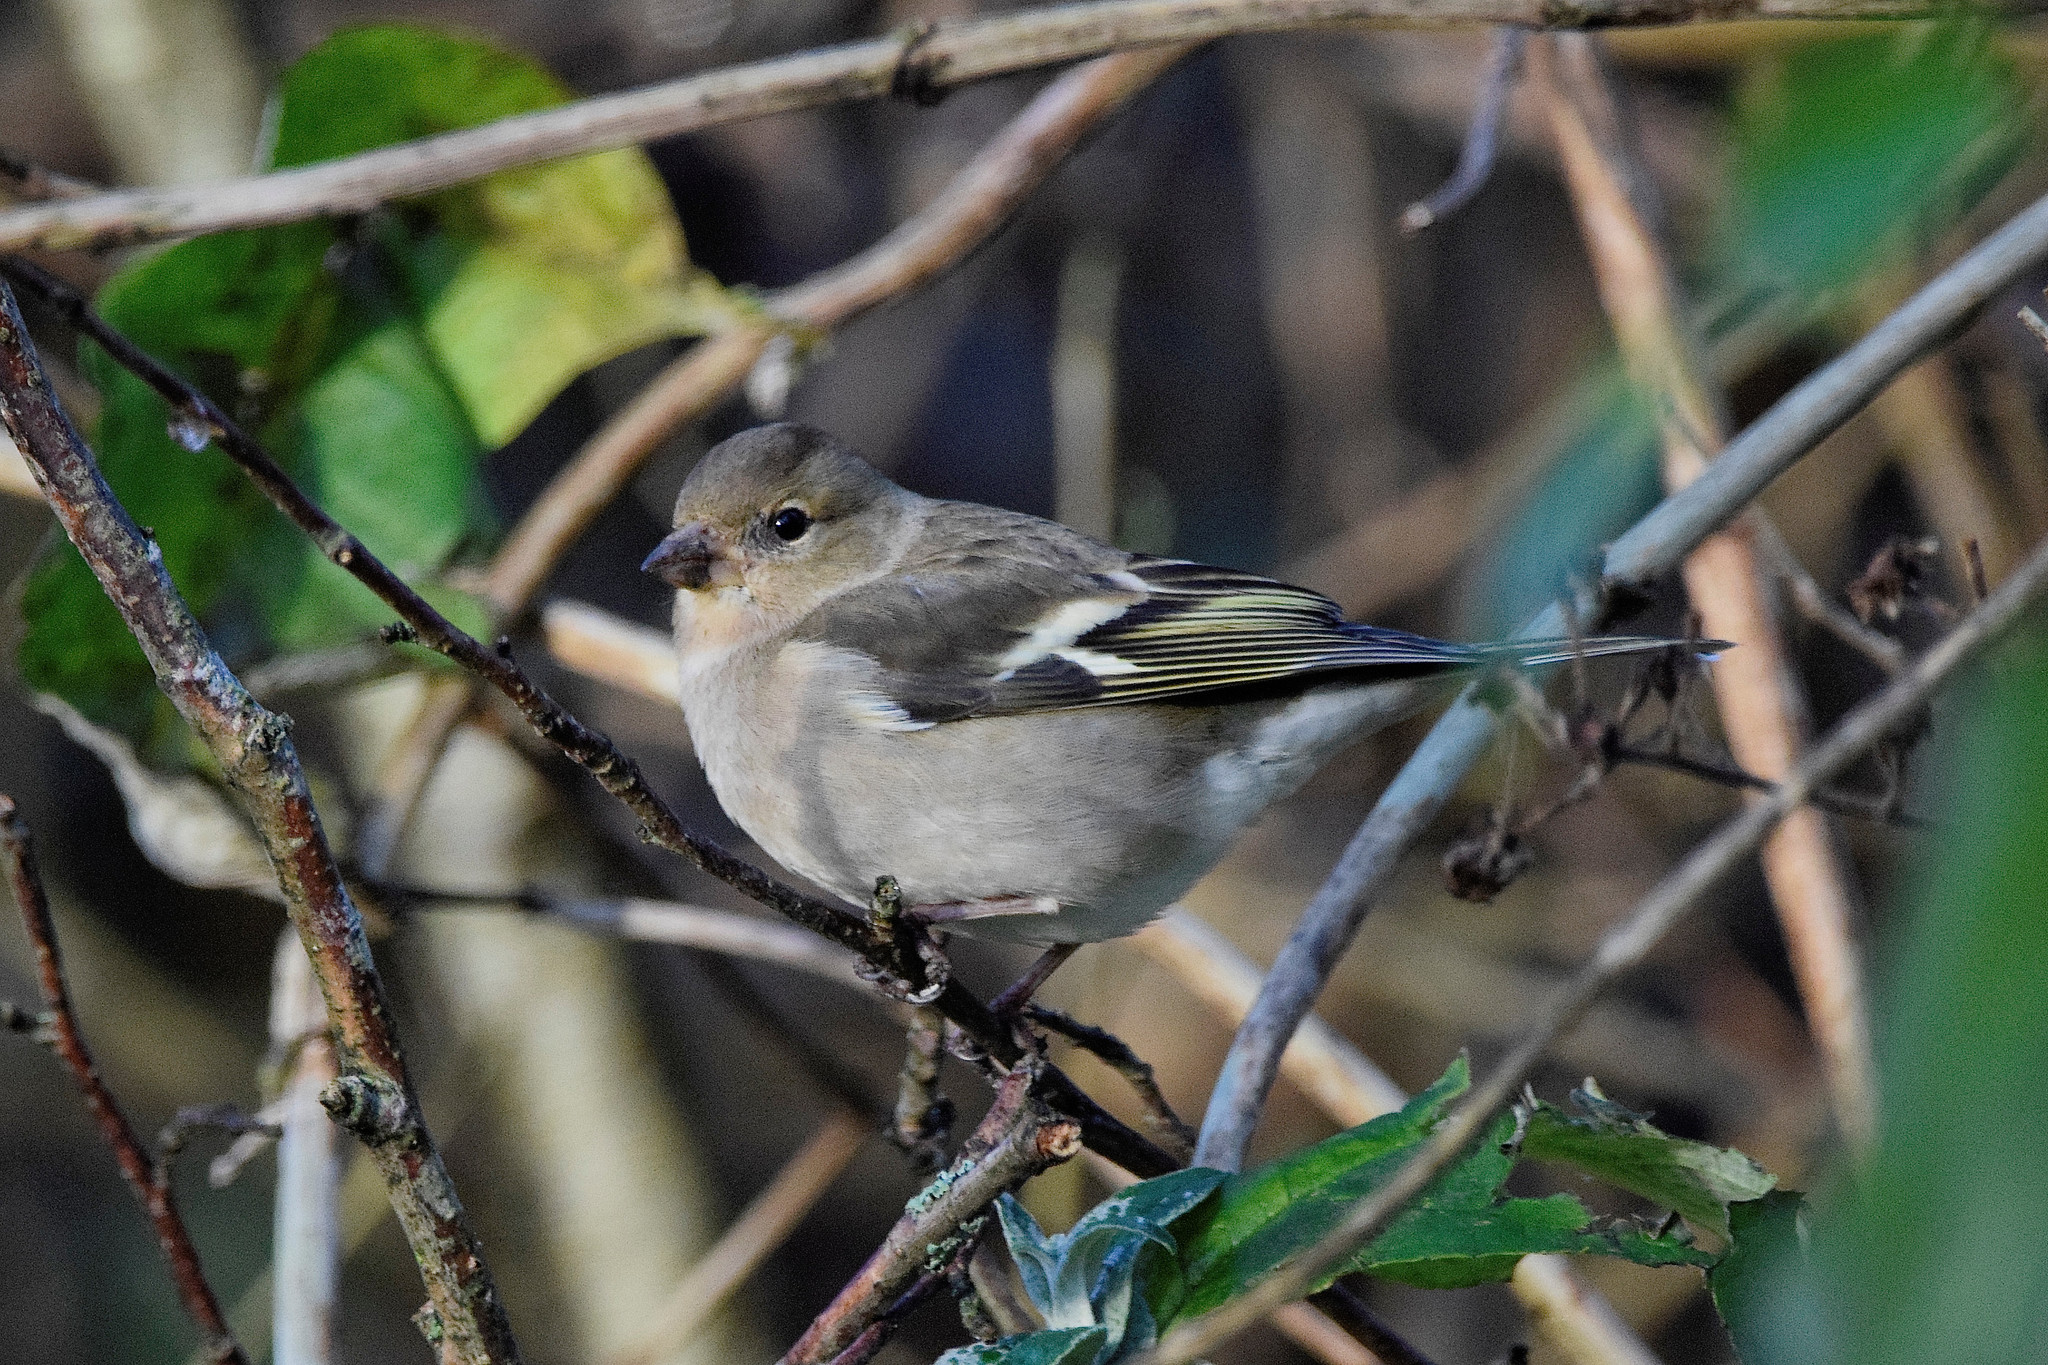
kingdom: Animalia
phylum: Chordata
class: Aves
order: Passeriformes
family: Fringillidae
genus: Fringilla
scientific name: Fringilla coelebs
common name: Common chaffinch
